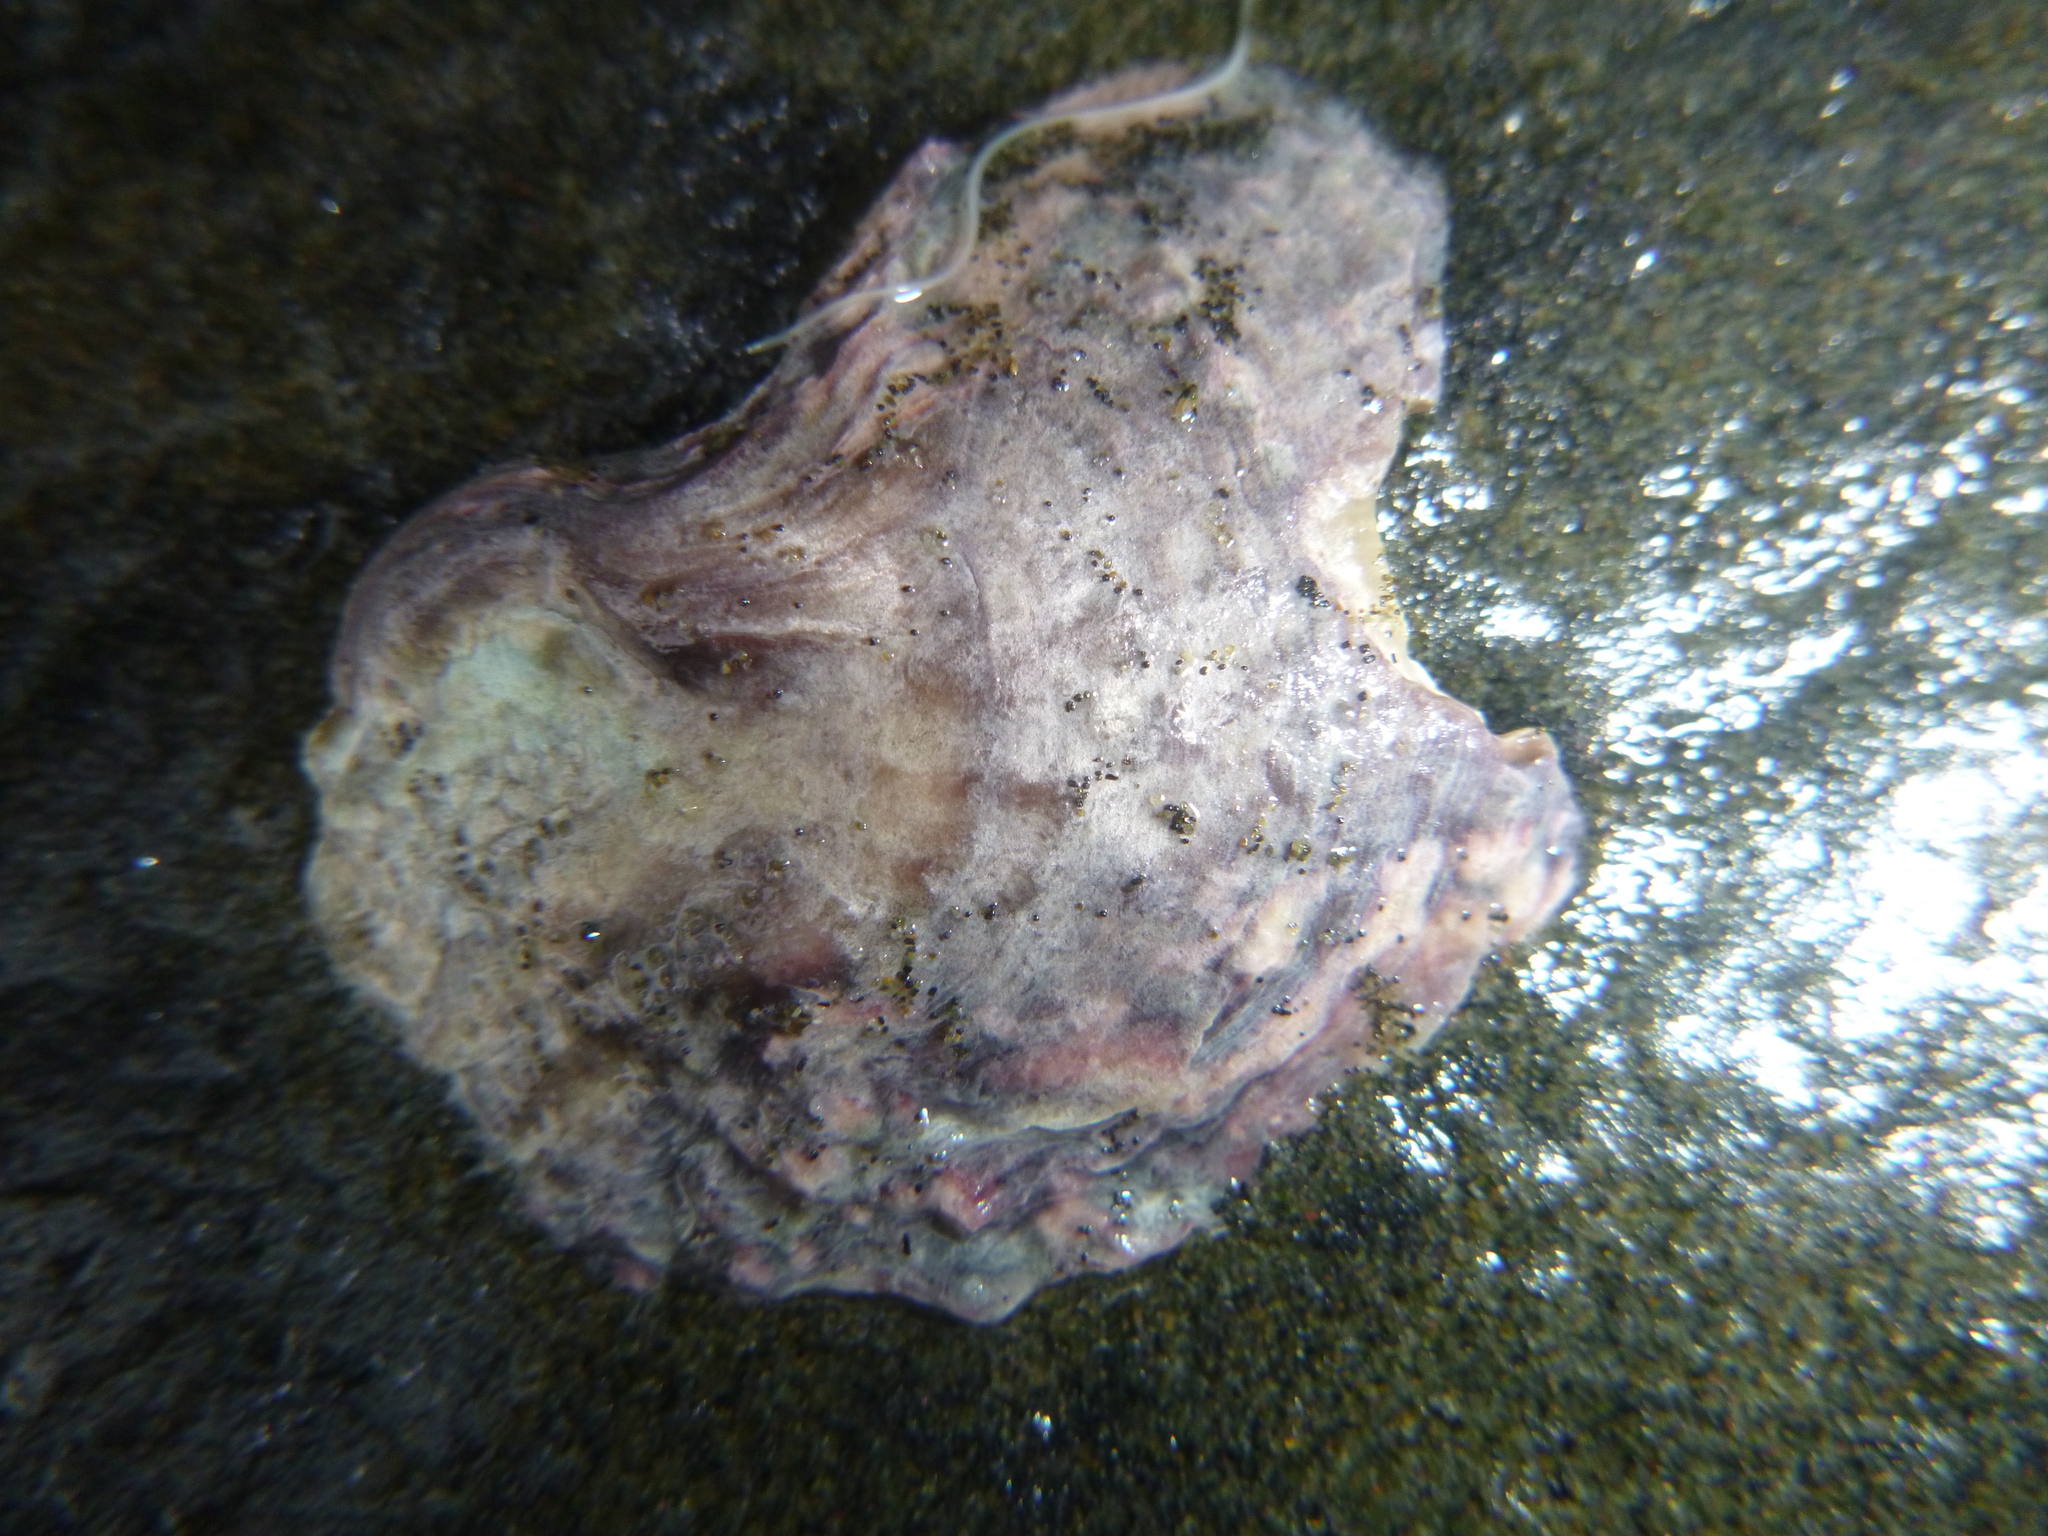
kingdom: Animalia
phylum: Mollusca
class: Bivalvia
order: Ostreida
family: Ostreidae
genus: Magallana
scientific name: Magallana gigas
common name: Pacific oyster
